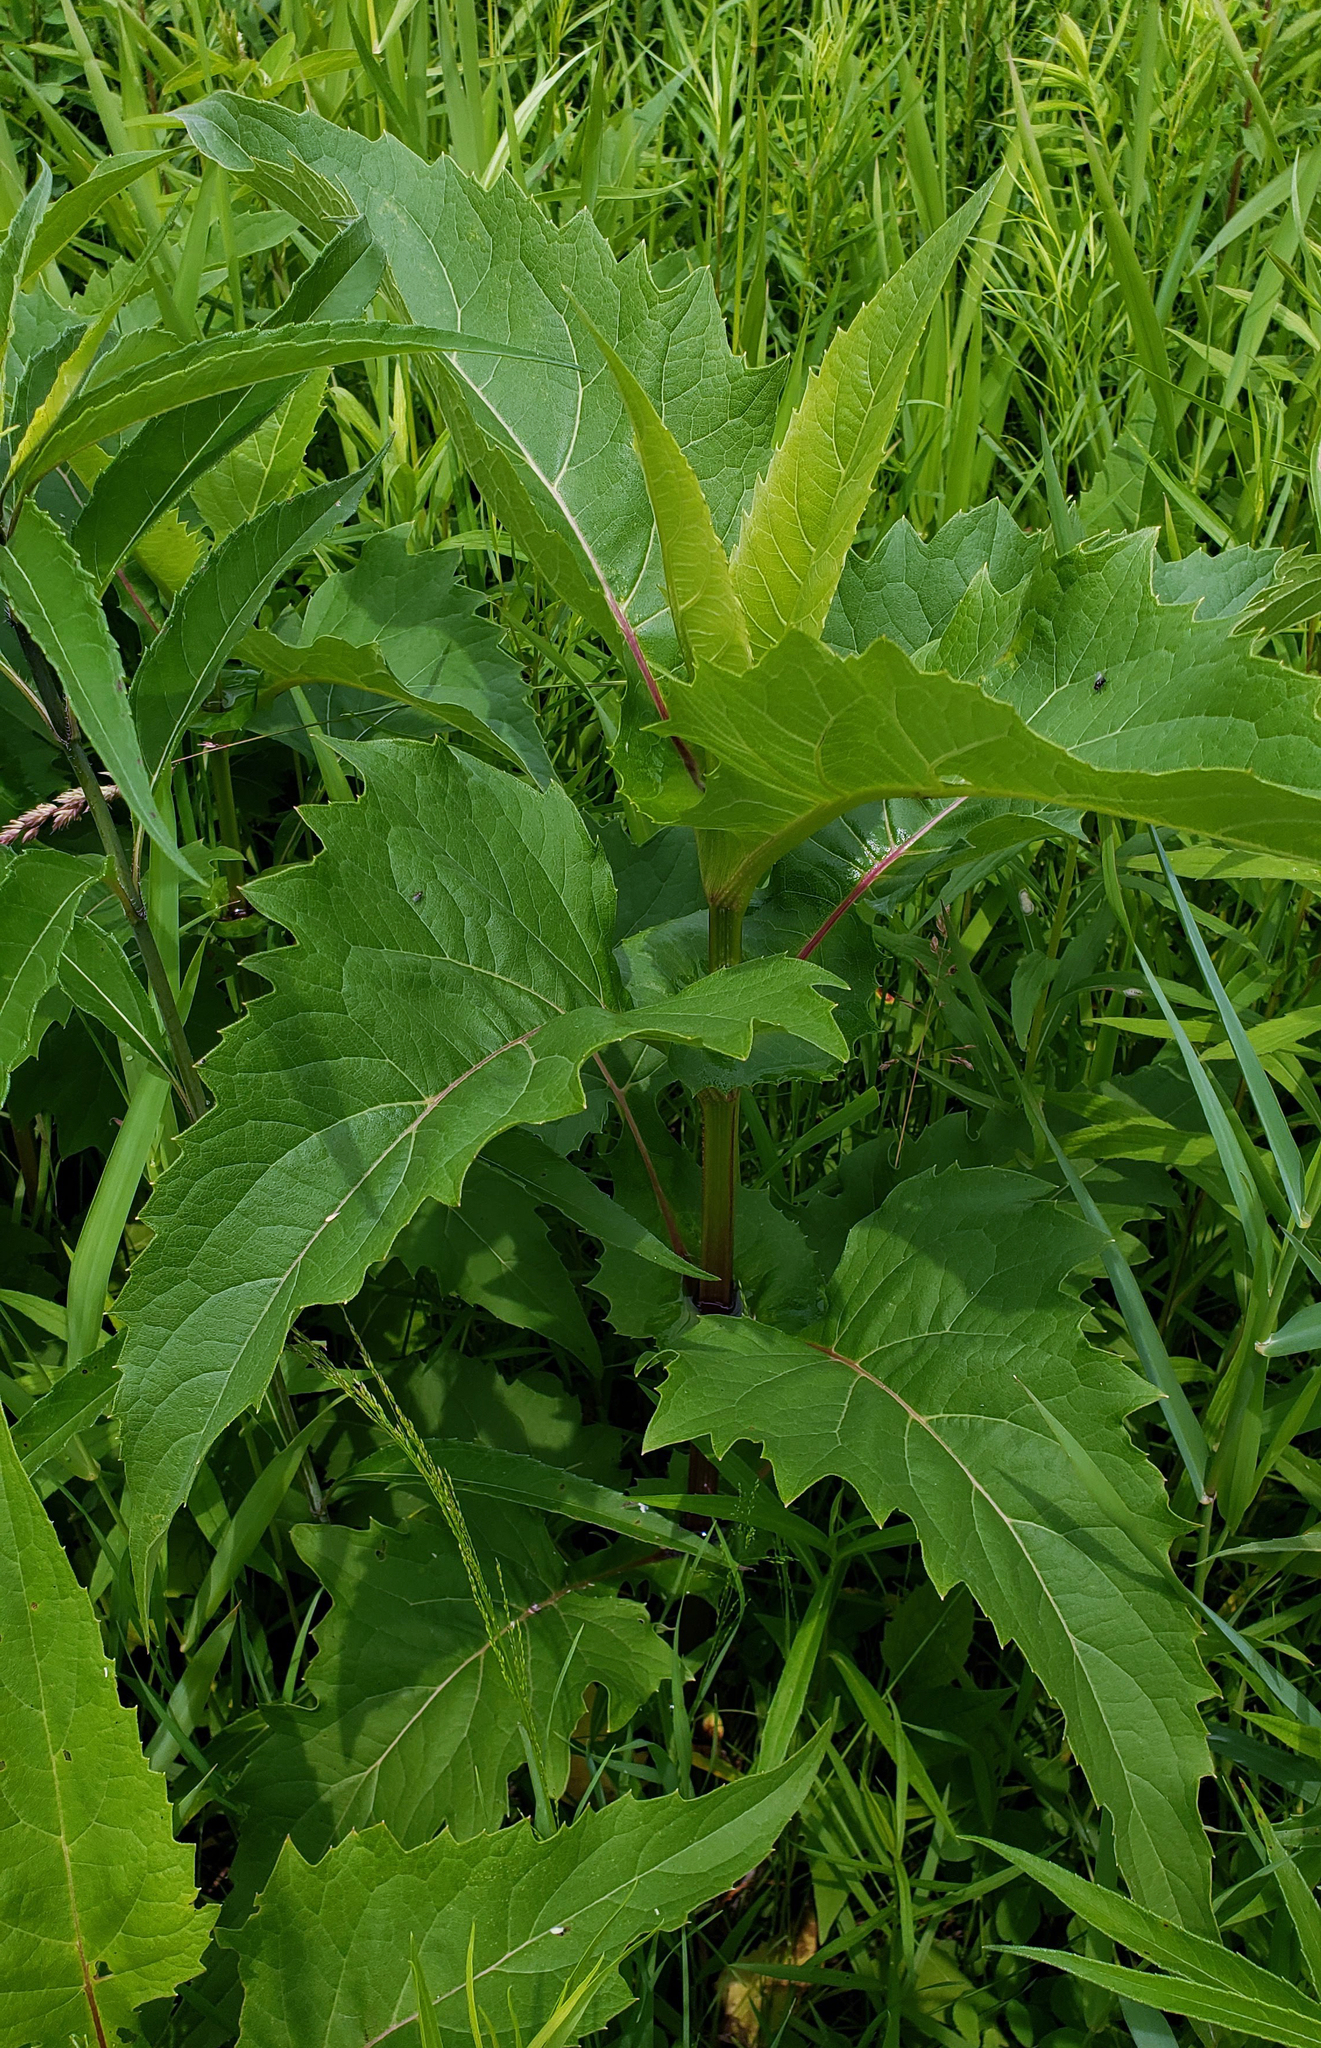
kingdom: Plantae
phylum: Tracheophyta
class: Magnoliopsida
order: Asterales
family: Asteraceae
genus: Silphium
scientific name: Silphium perfoliatum
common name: Cup-plant
